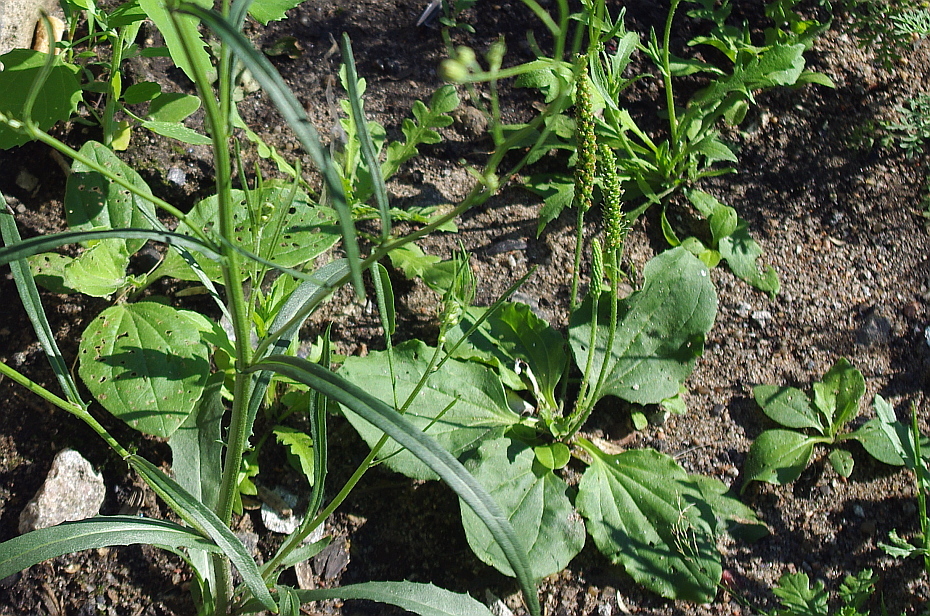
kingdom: Plantae
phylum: Tracheophyta
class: Magnoliopsida
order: Lamiales
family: Plantaginaceae
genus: Plantago
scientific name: Plantago major
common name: Common plantain
